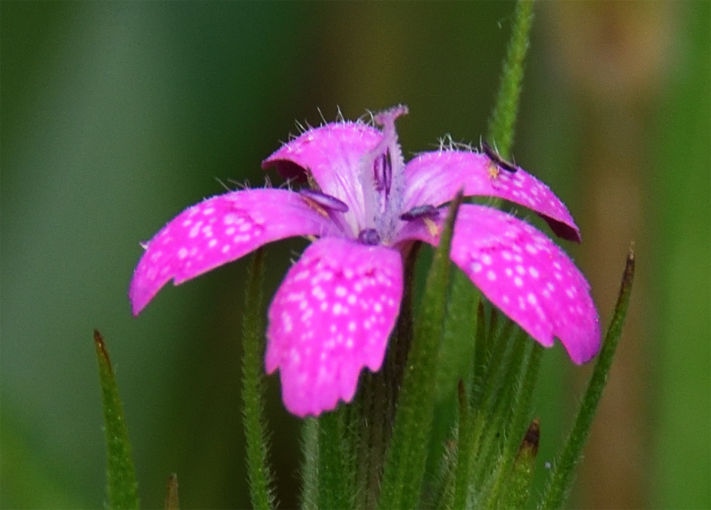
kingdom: Plantae
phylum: Tracheophyta
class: Magnoliopsida
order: Caryophyllales
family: Caryophyllaceae
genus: Dianthus
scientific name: Dianthus armeria
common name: Deptford pink
